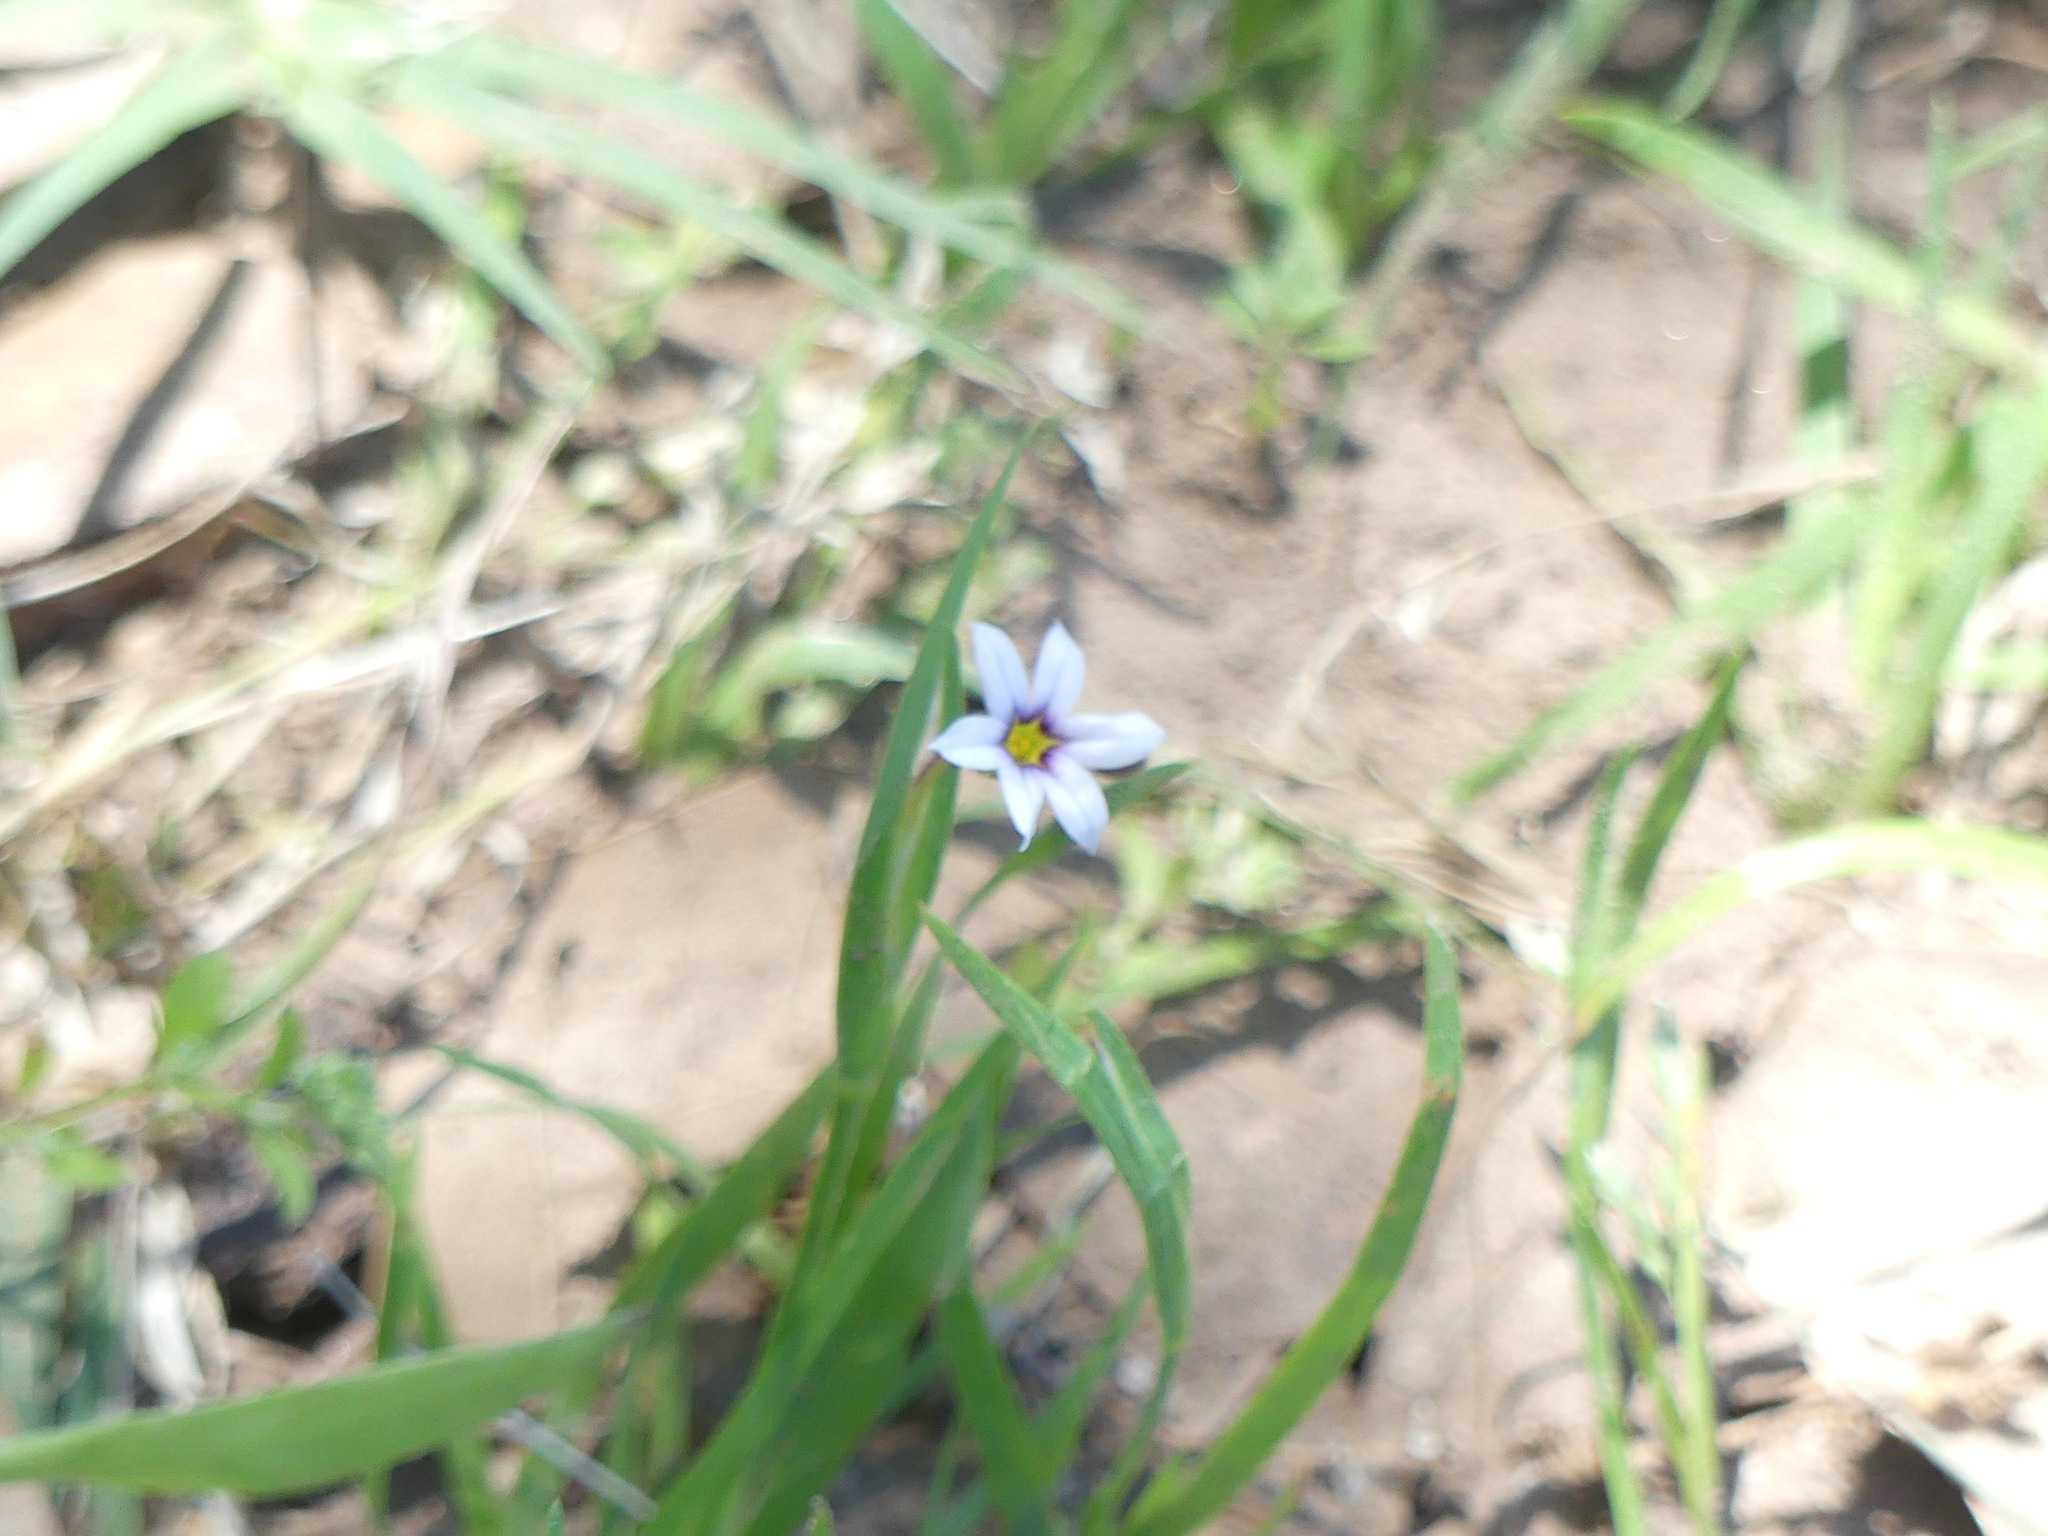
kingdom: Plantae
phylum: Tracheophyta
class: Liliopsida
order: Asparagales
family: Iridaceae
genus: Sisyrinchium
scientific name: Sisyrinchium micranthum
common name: Bermuda pigroot
